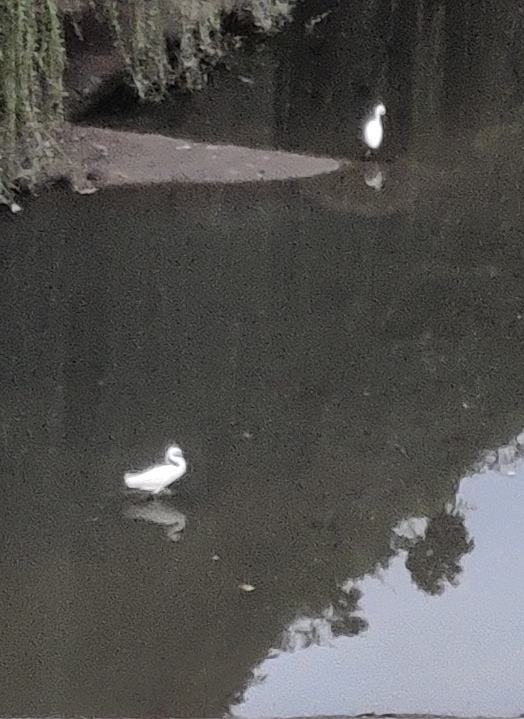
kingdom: Animalia
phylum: Chordata
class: Aves
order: Pelecaniformes
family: Ardeidae
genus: Egretta
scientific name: Egretta garzetta
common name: Little egret
